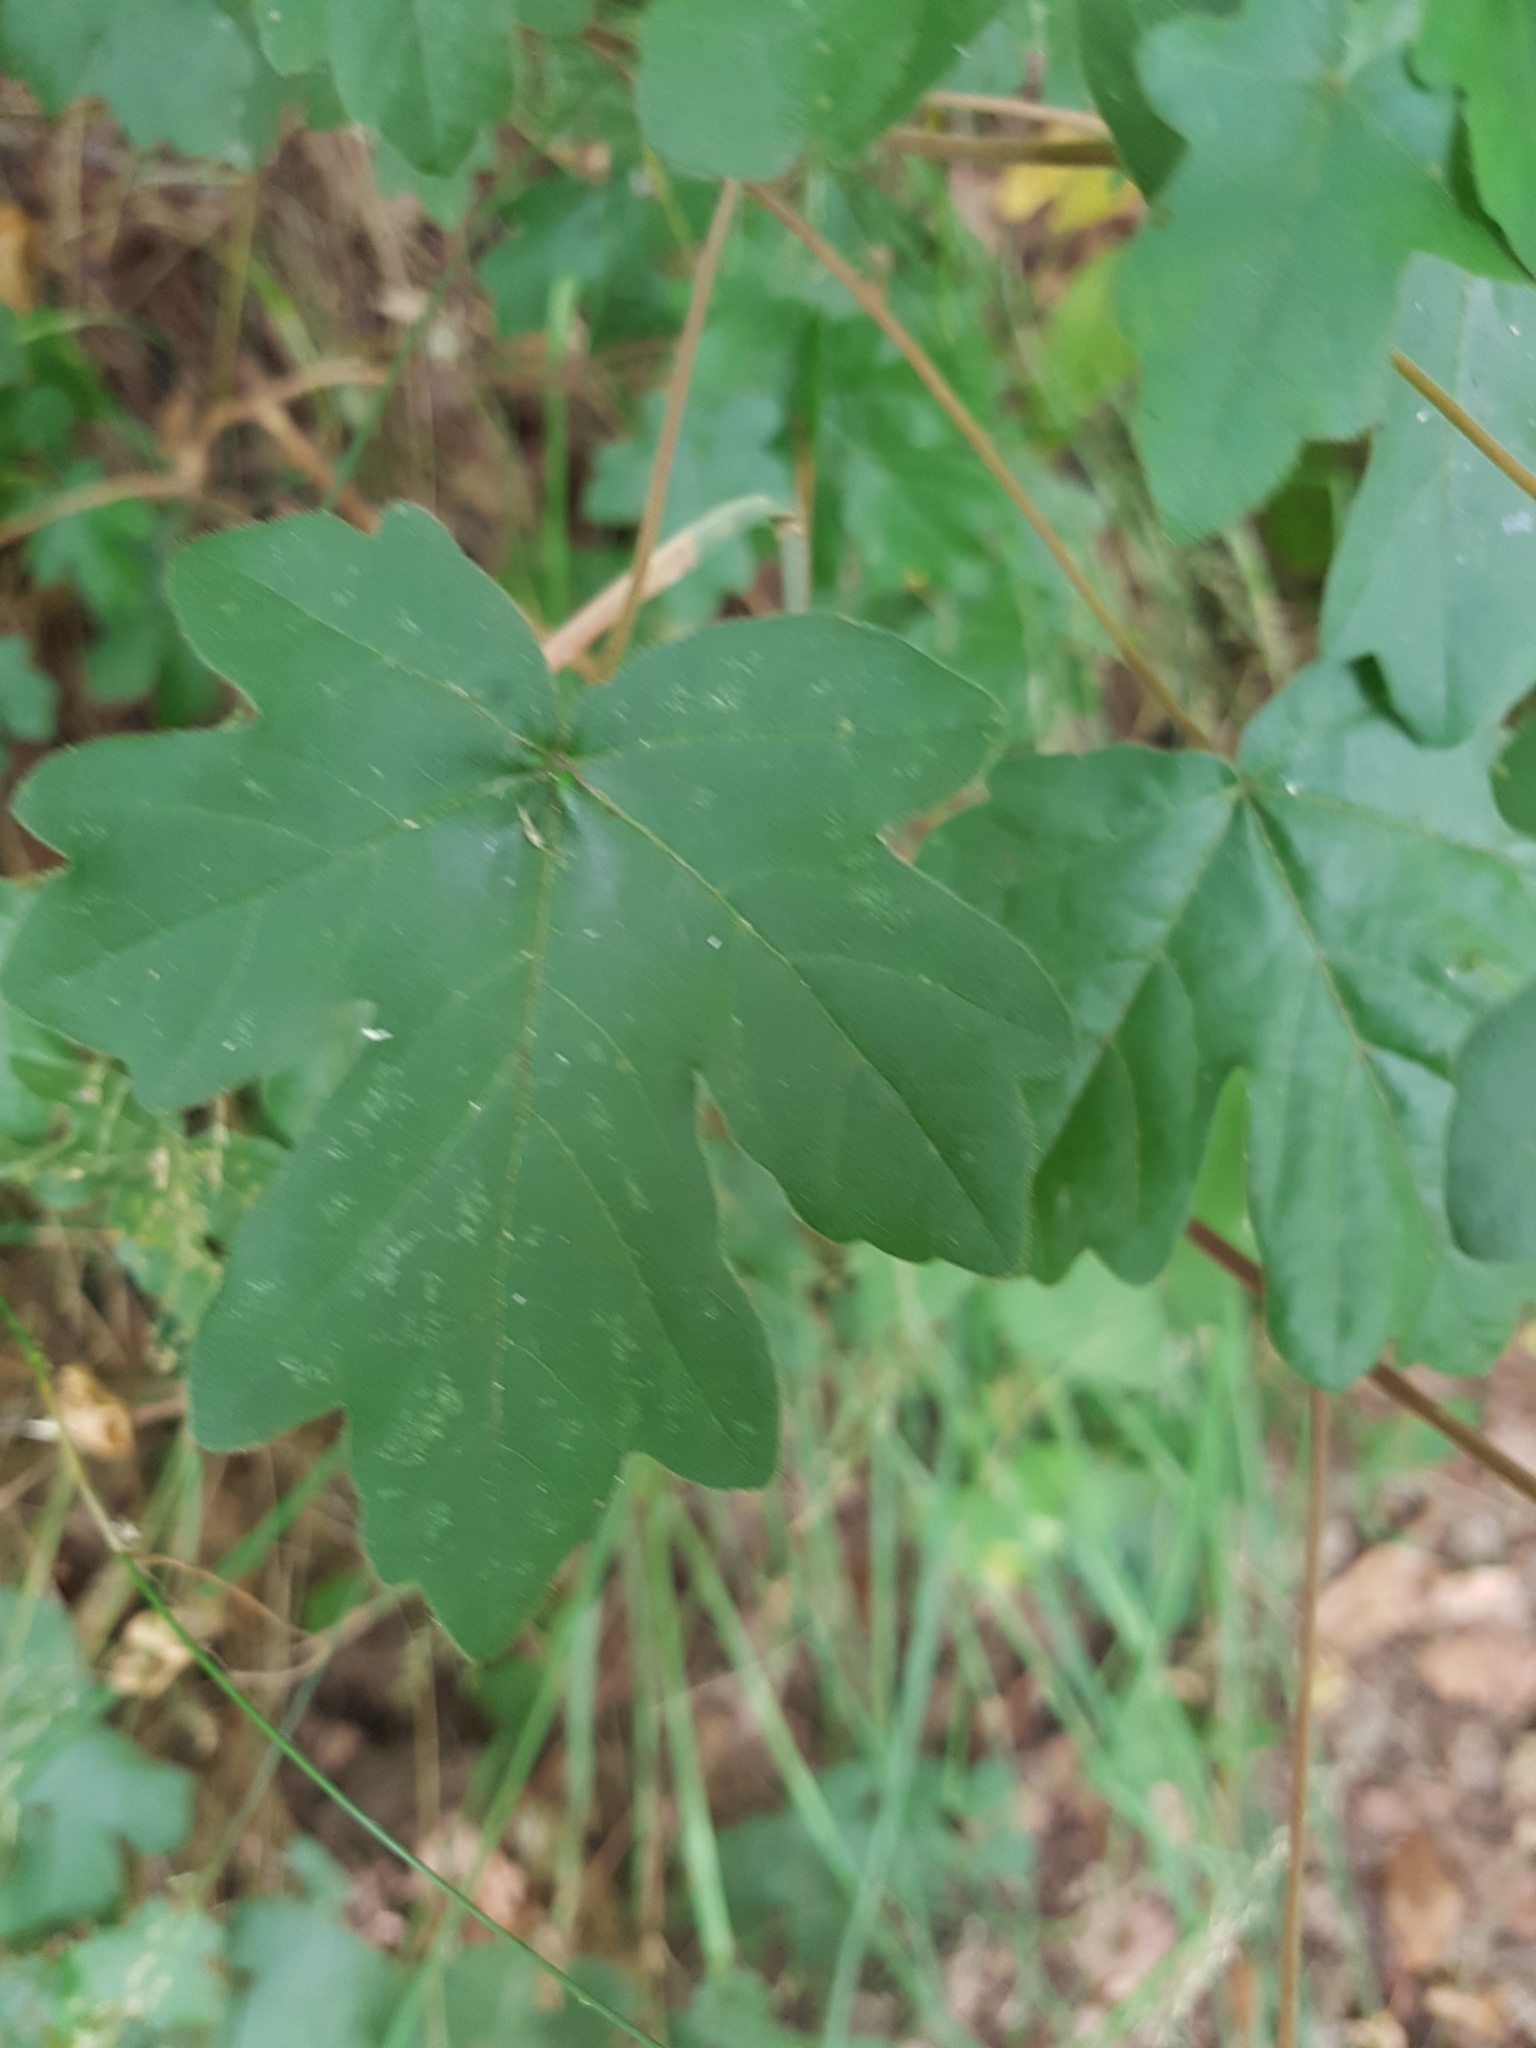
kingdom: Plantae
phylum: Tracheophyta
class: Magnoliopsida
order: Sapindales
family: Sapindaceae
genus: Acer
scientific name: Acer campestre
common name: Field maple
